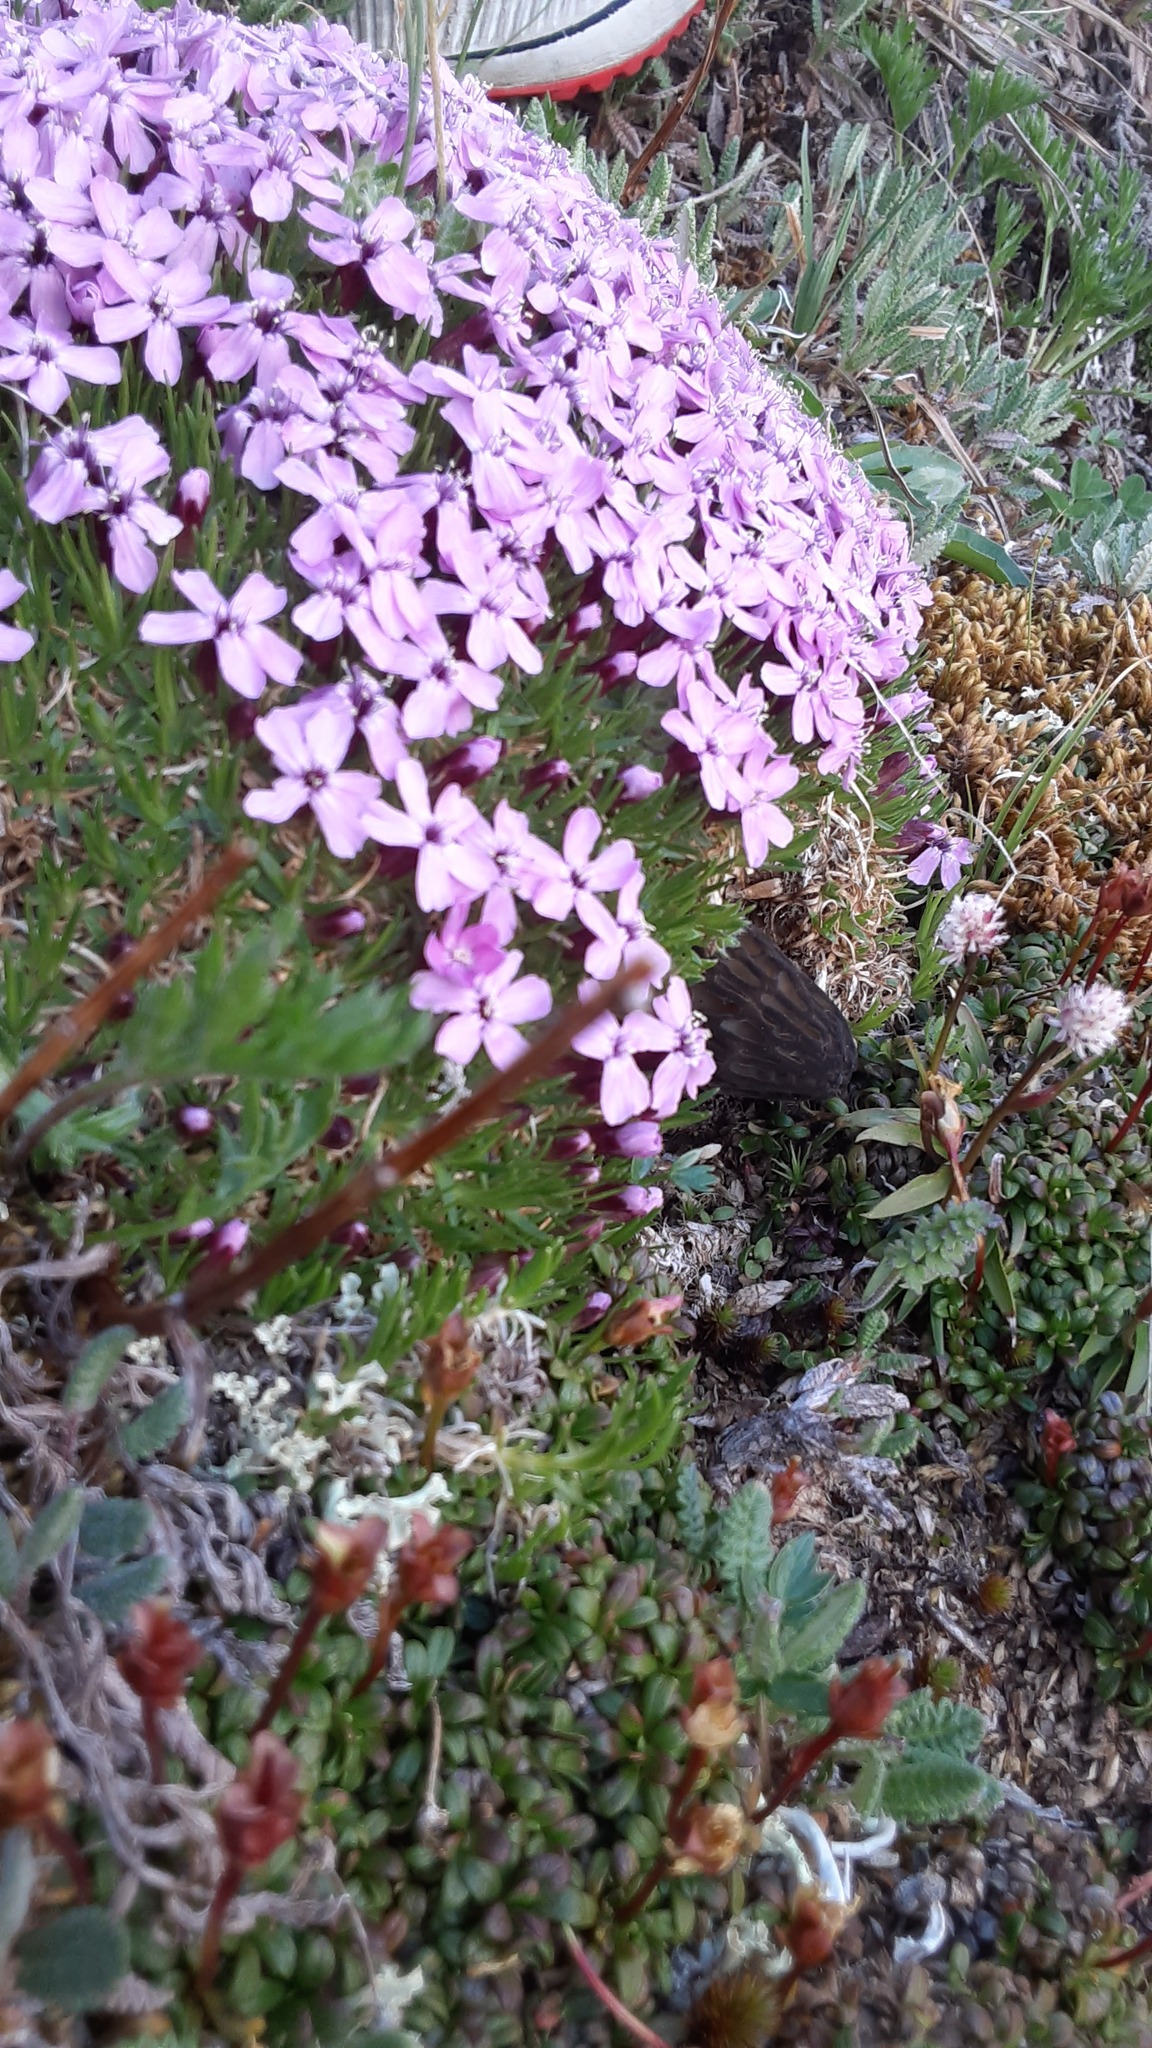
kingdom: Plantae
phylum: Tracheophyta
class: Magnoliopsida
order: Caryophyllales
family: Caryophyllaceae
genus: Silene
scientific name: Silene acaulis
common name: Moss campion
